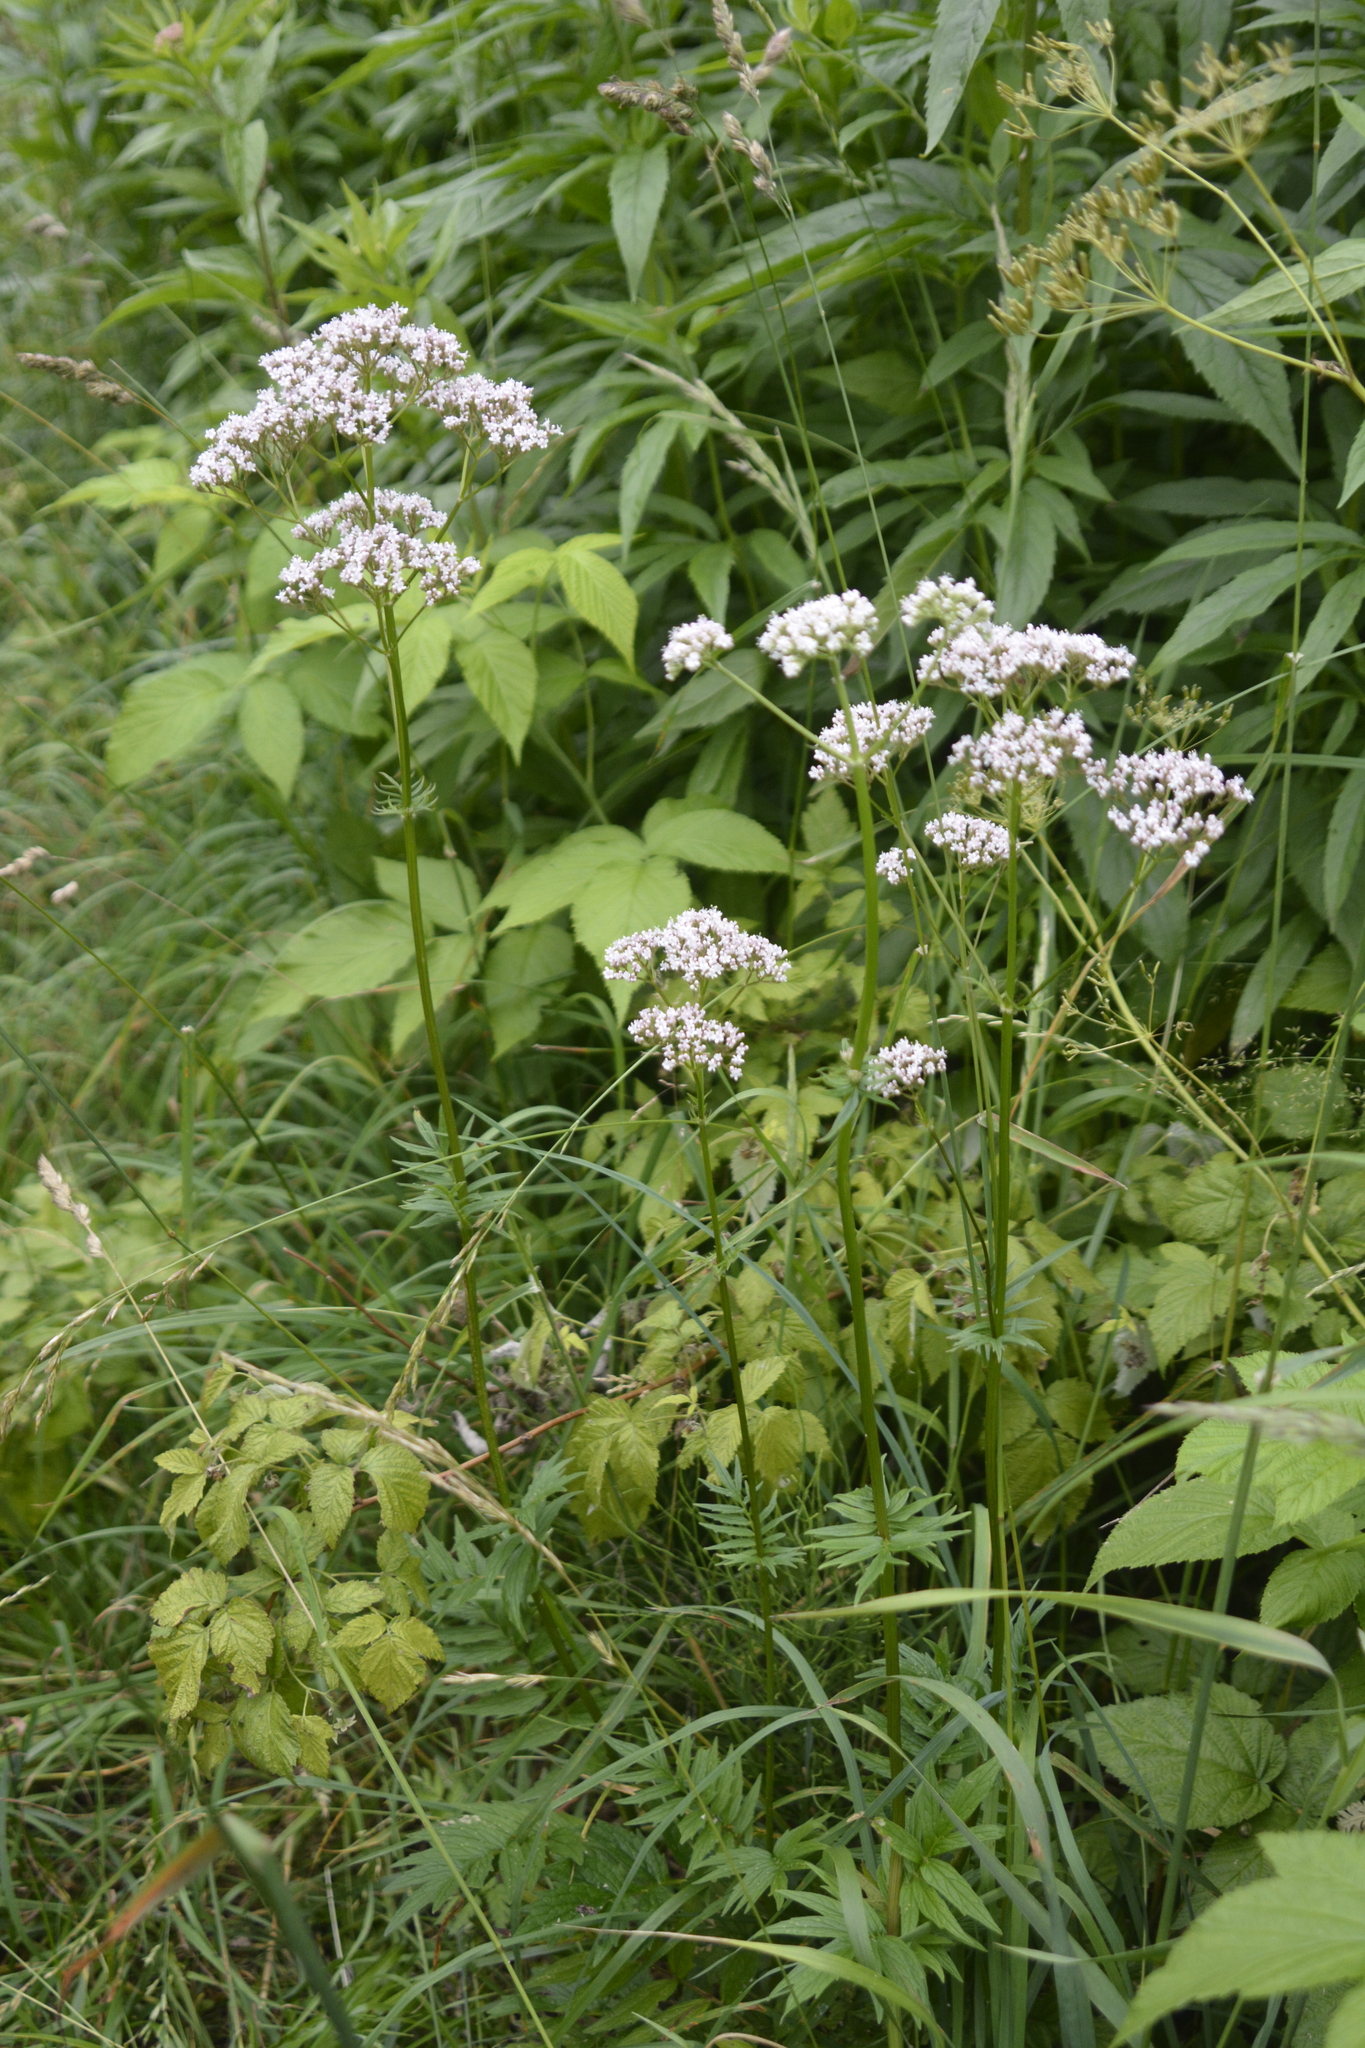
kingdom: Plantae
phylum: Tracheophyta
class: Magnoliopsida
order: Dipsacales
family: Caprifoliaceae
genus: Valeriana
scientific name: Valeriana officinalis
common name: Common valerian
